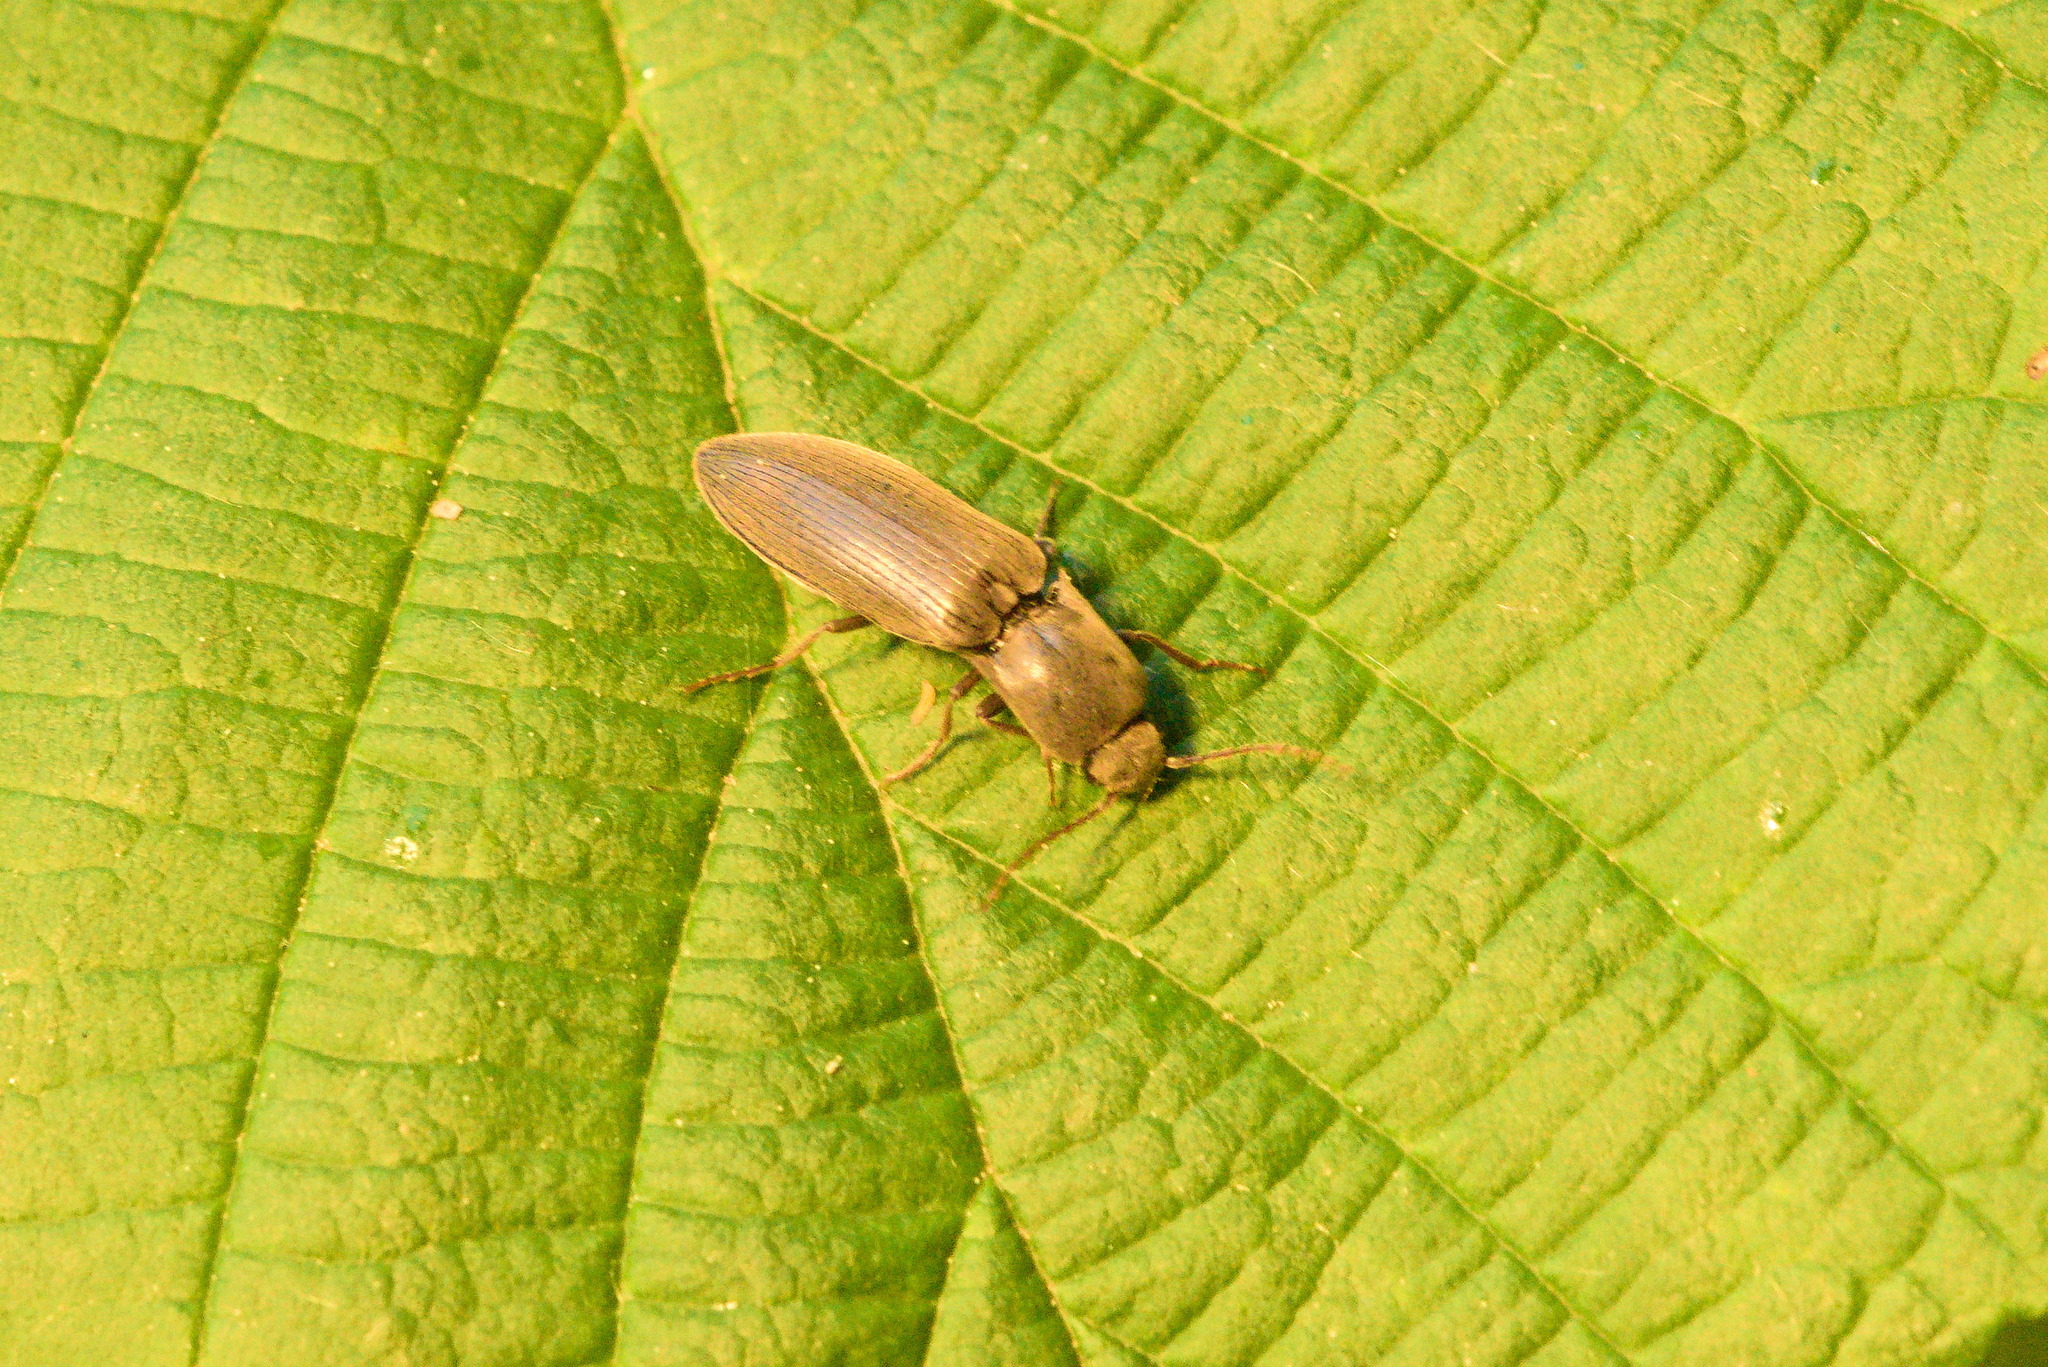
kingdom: Animalia
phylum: Arthropoda
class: Insecta
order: Coleoptera
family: Elateridae
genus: Agriotes
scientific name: Agriotes pilosellus
